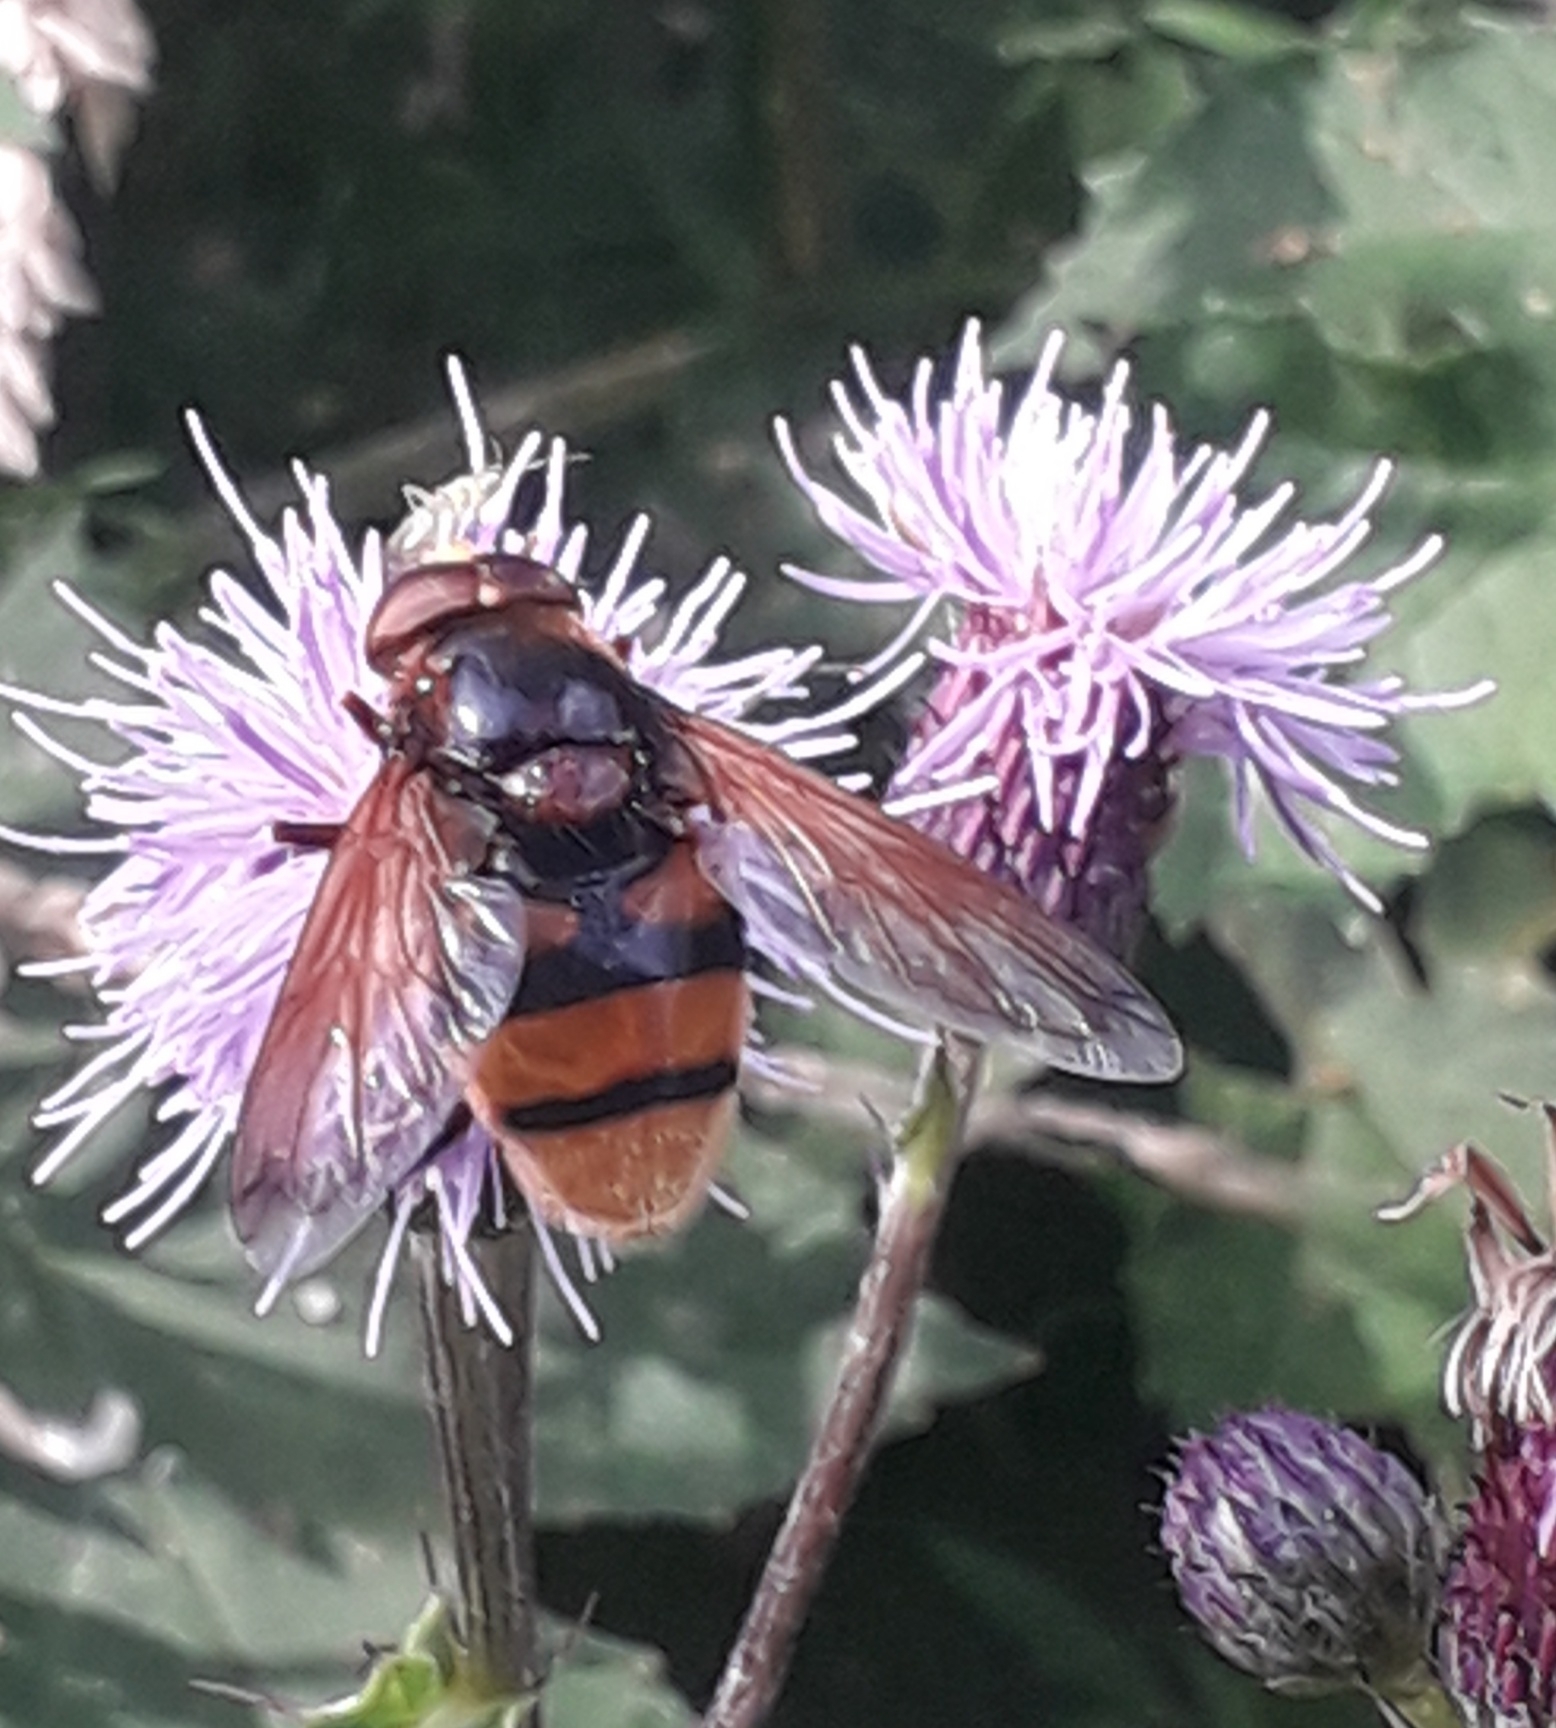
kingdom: Animalia
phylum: Arthropoda
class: Insecta
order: Diptera
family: Syrphidae
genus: Volucella
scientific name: Volucella zonaria
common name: Hornet hoverfly
